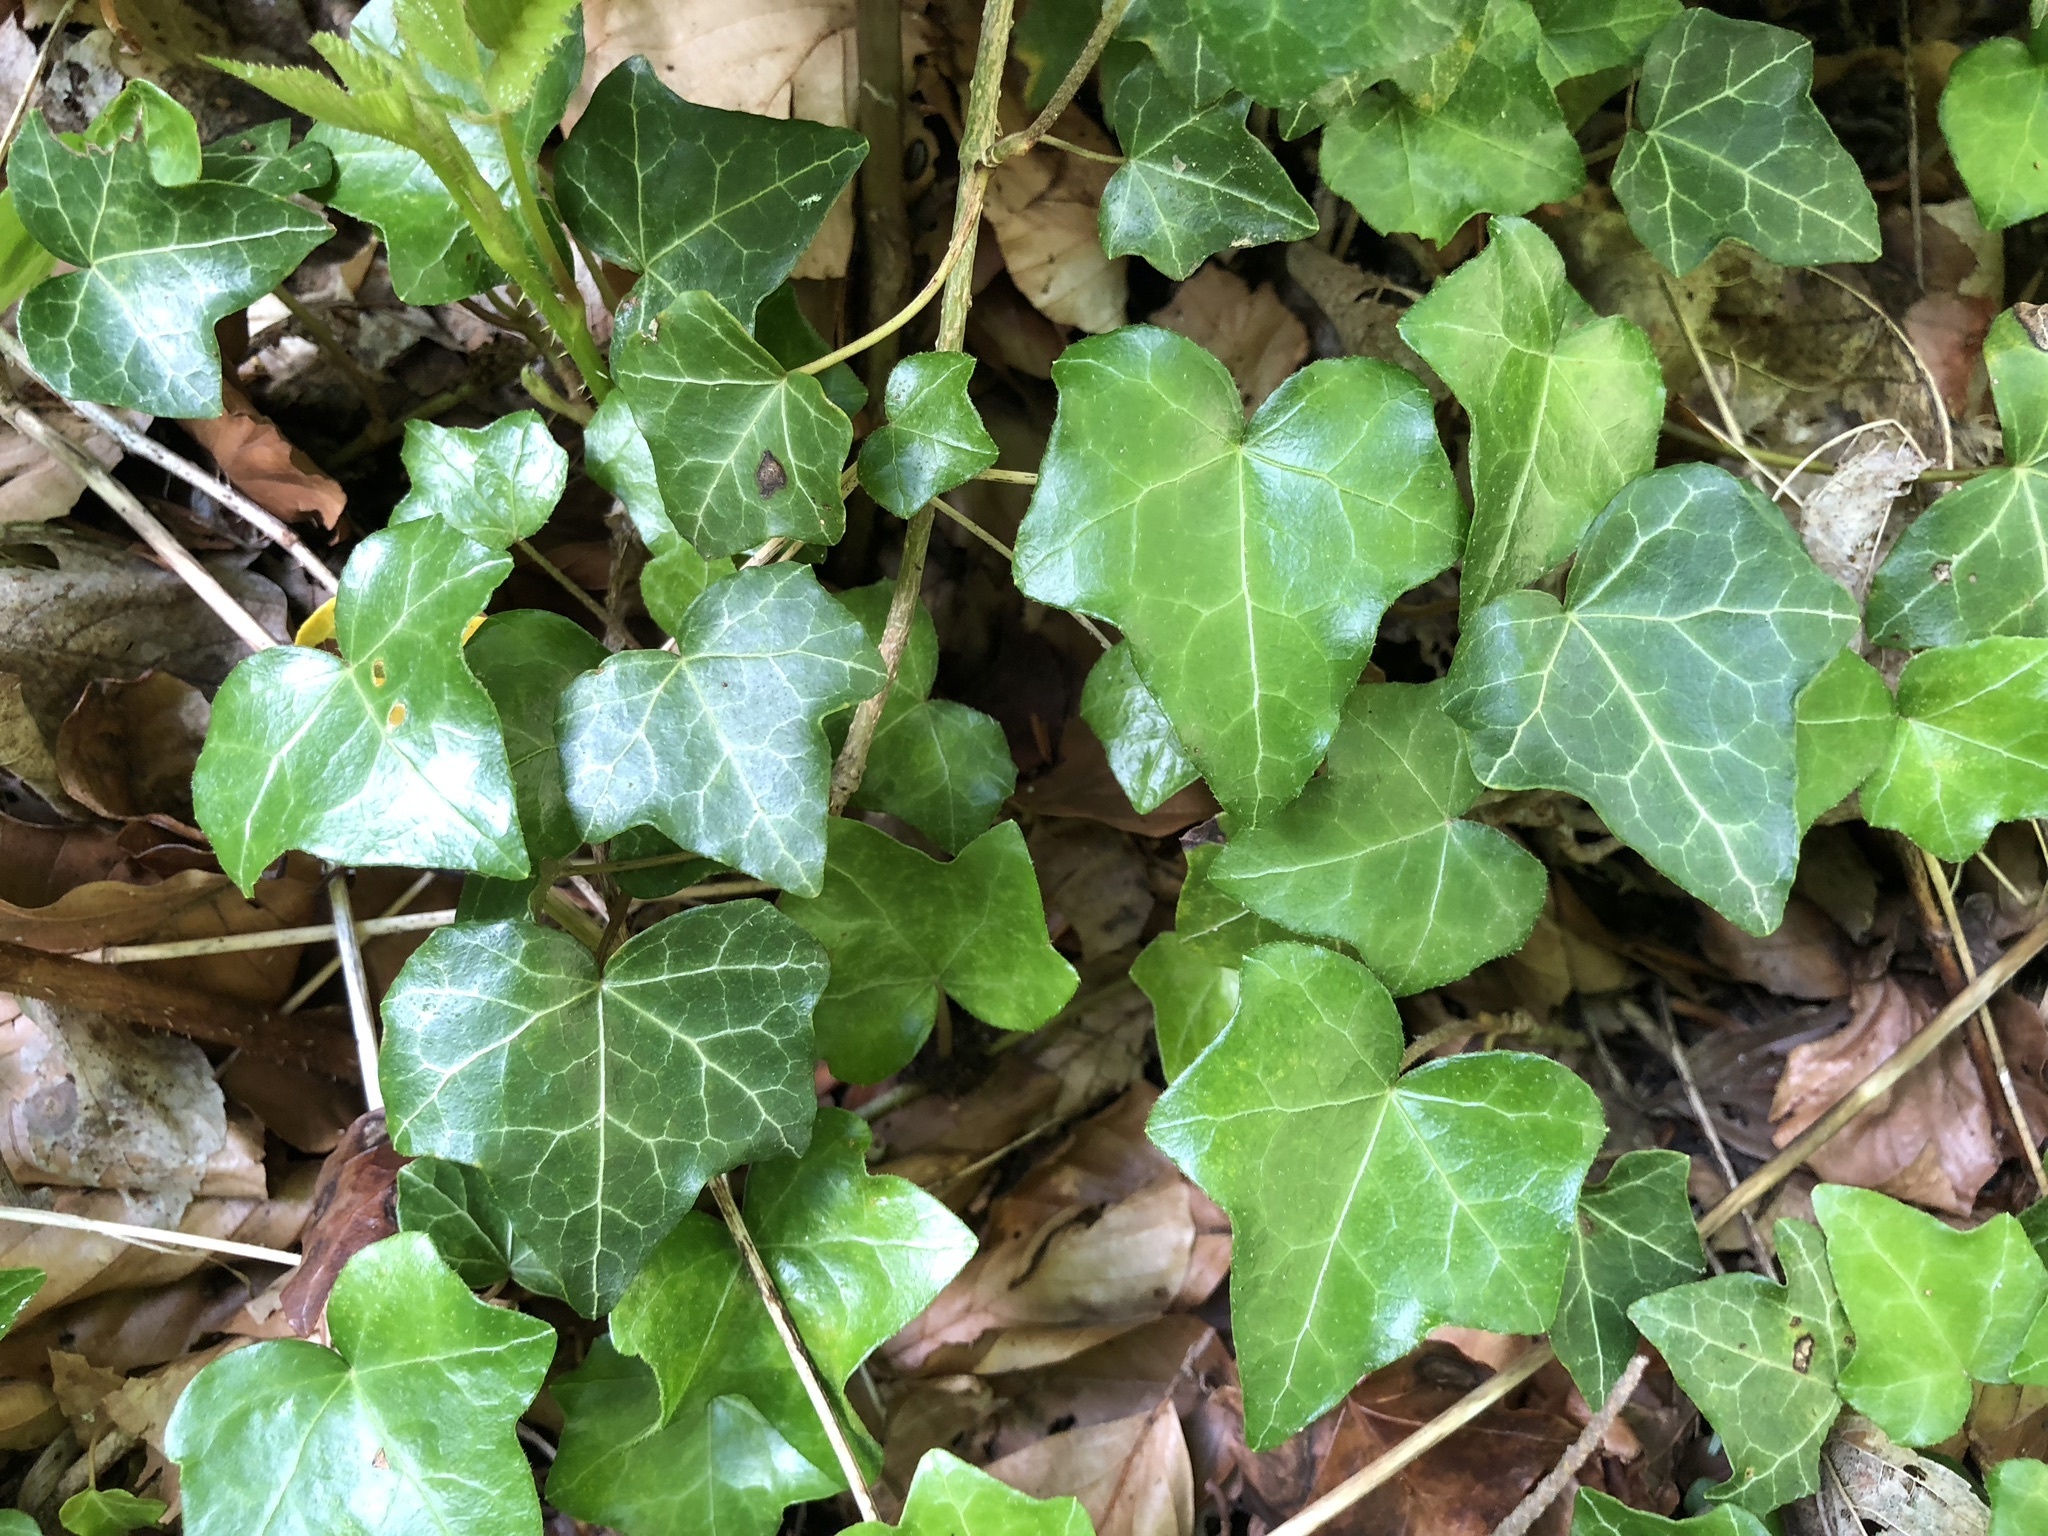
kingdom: Plantae
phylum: Tracheophyta
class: Magnoliopsida
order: Apiales
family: Araliaceae
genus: Hedera
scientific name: Hedera helix
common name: Ivy
